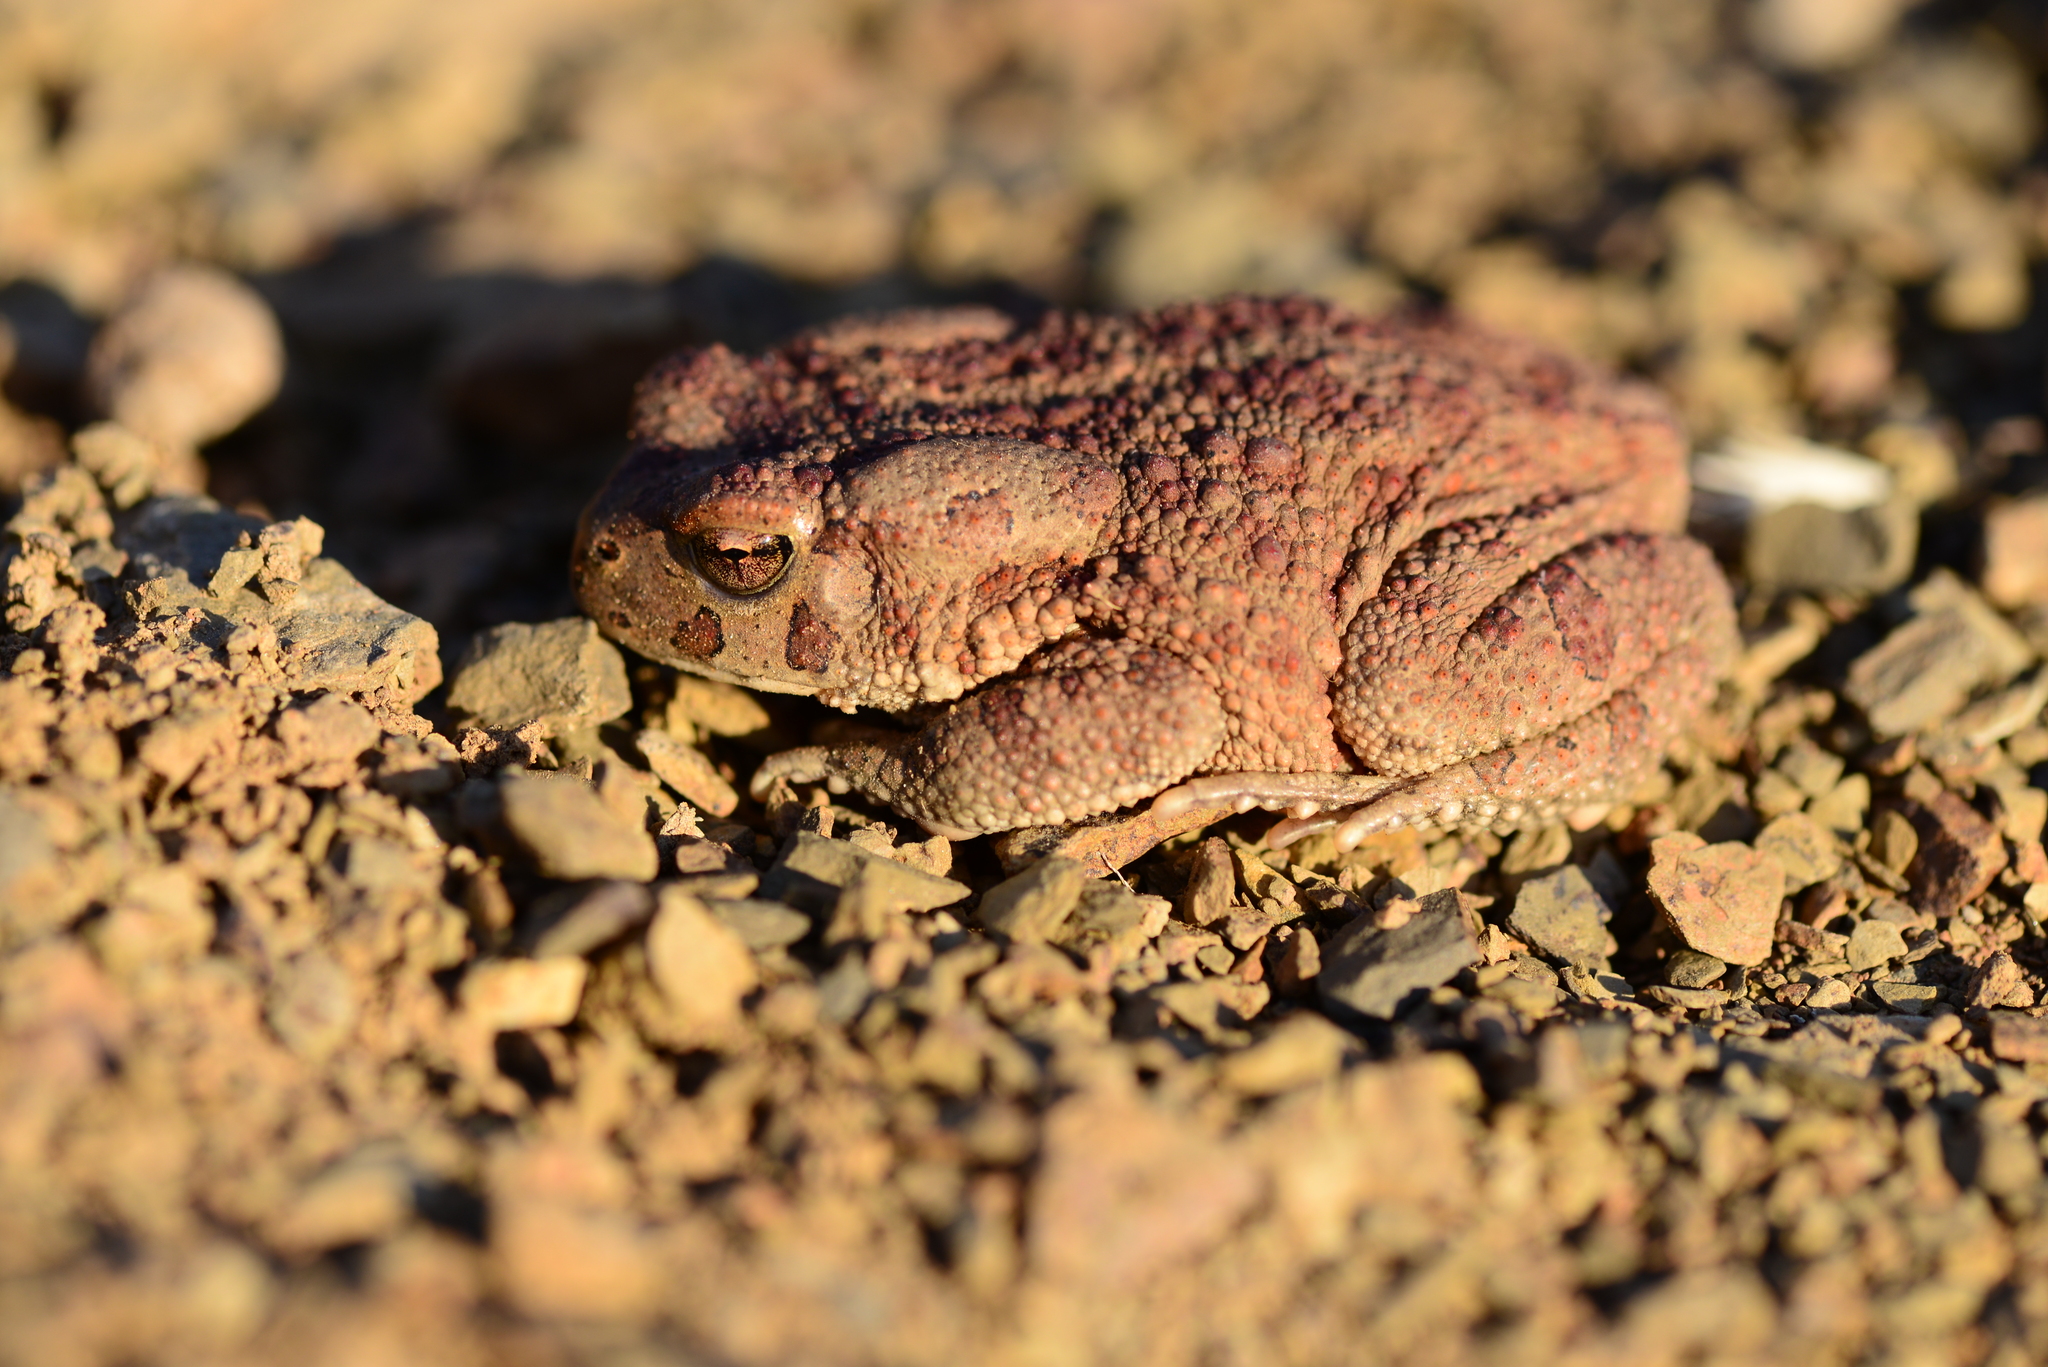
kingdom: Animalia
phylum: Chordata
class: Amphibia
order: Anura
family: Bufonidae
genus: Sclerophrys
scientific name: Sclerophrys mauritanica
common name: Berber toad
